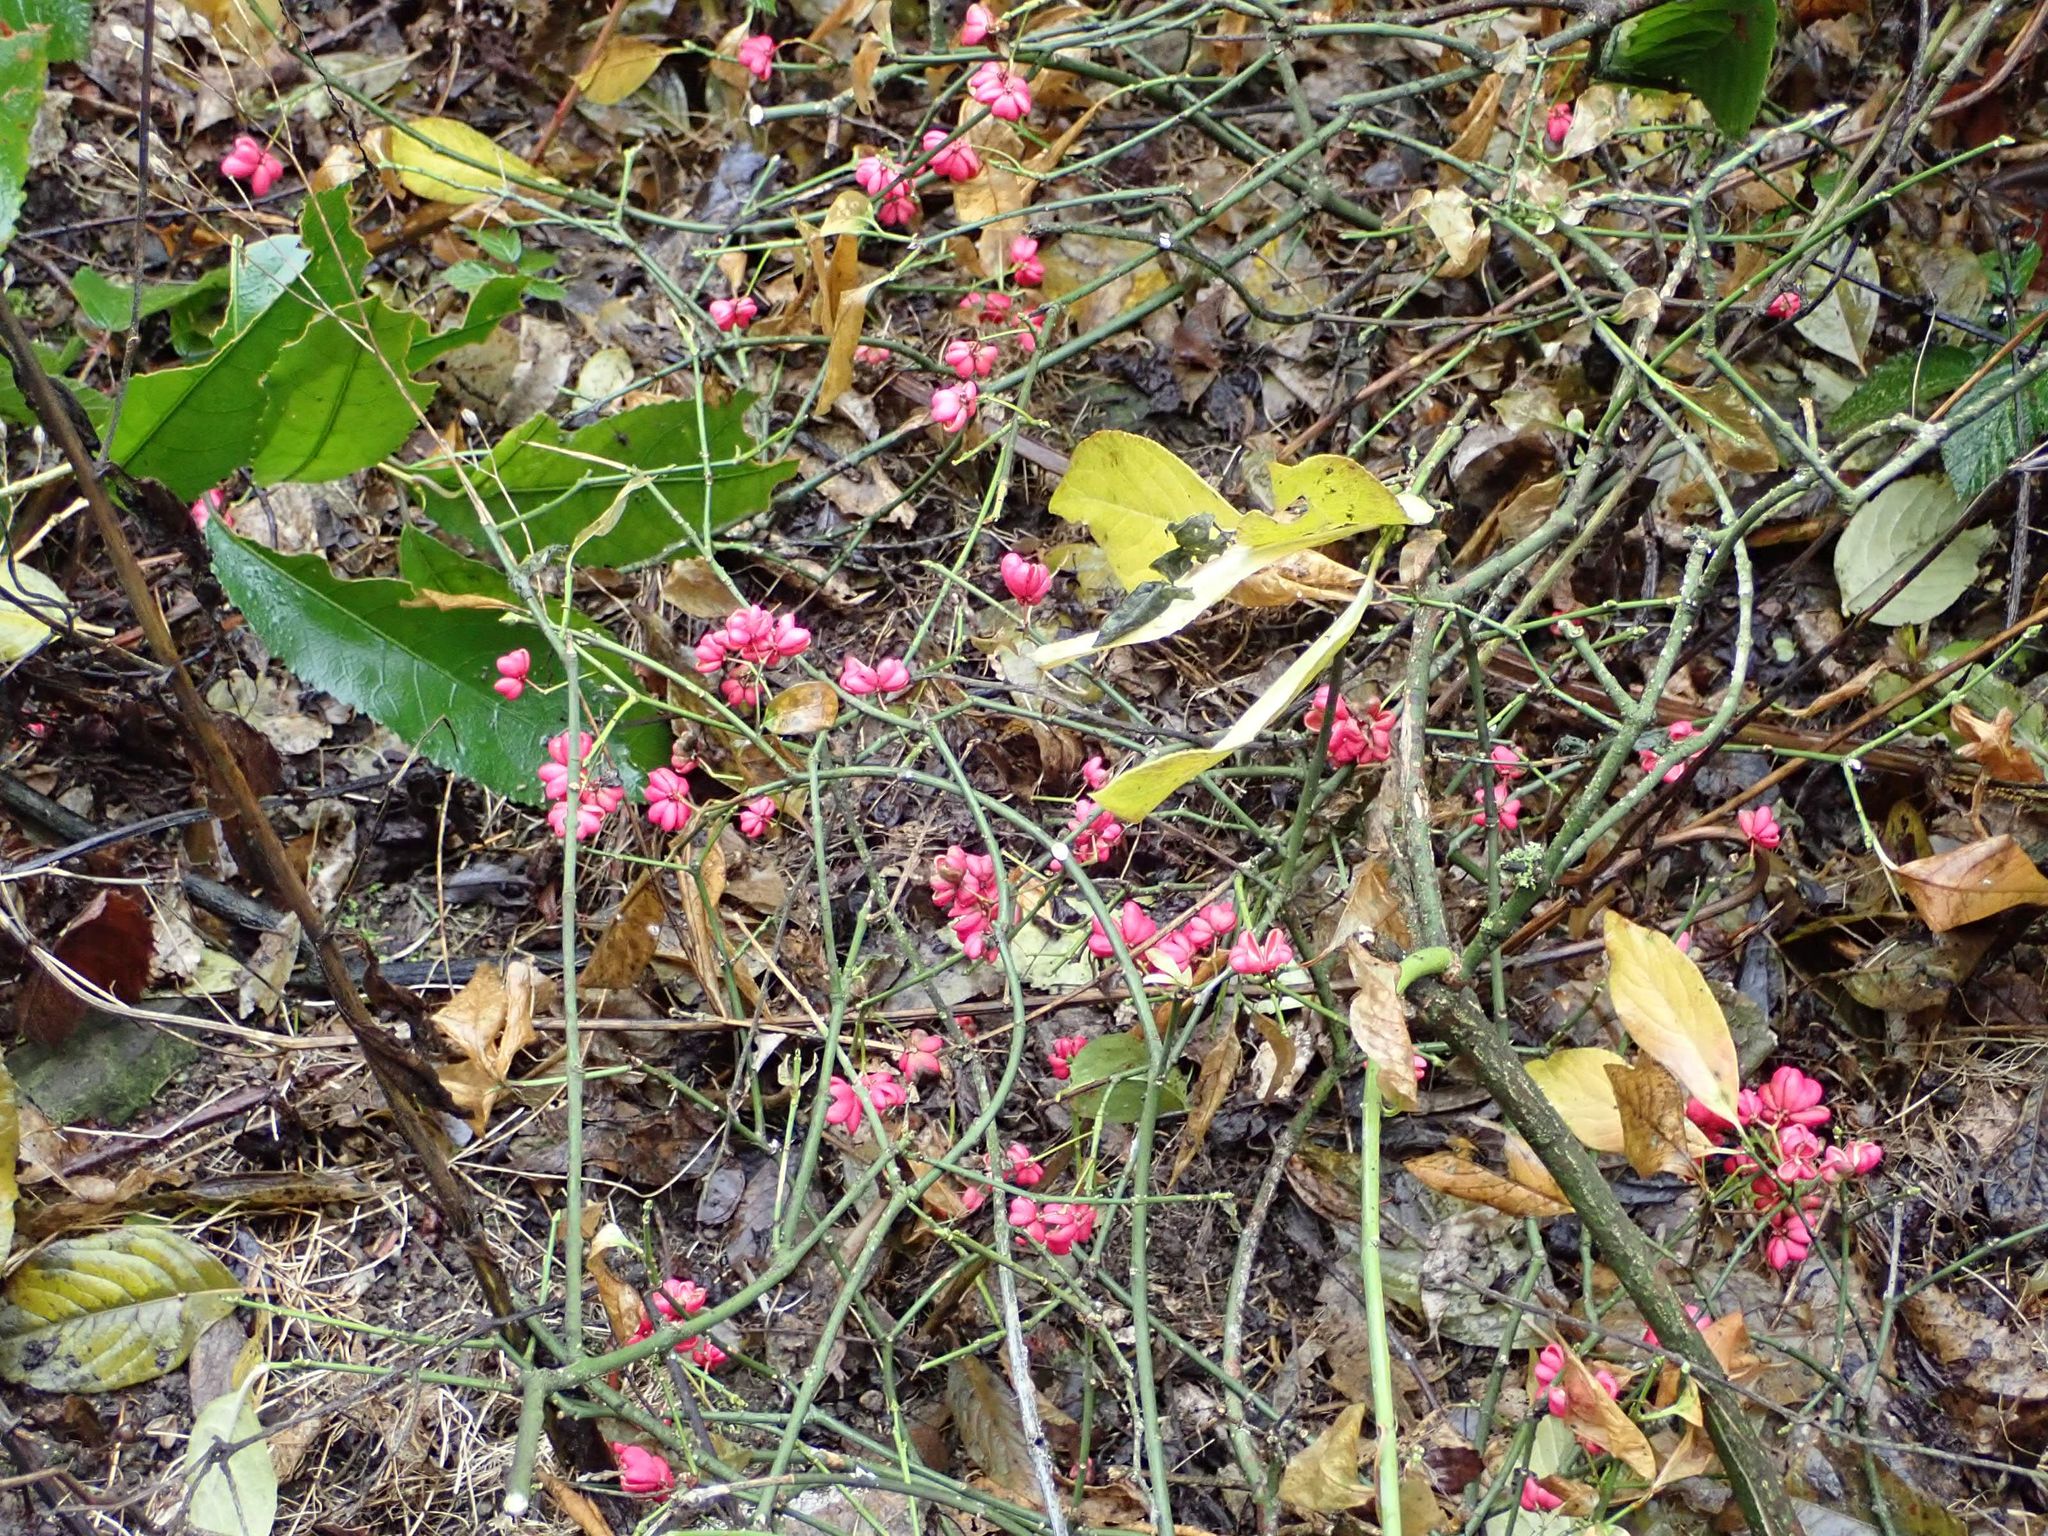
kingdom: Plantae
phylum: Tracheophyta
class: Magnoliopsida
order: Celastrales
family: Celastraceae
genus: Euonymus
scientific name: Euonymus europaeus
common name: Spindle
